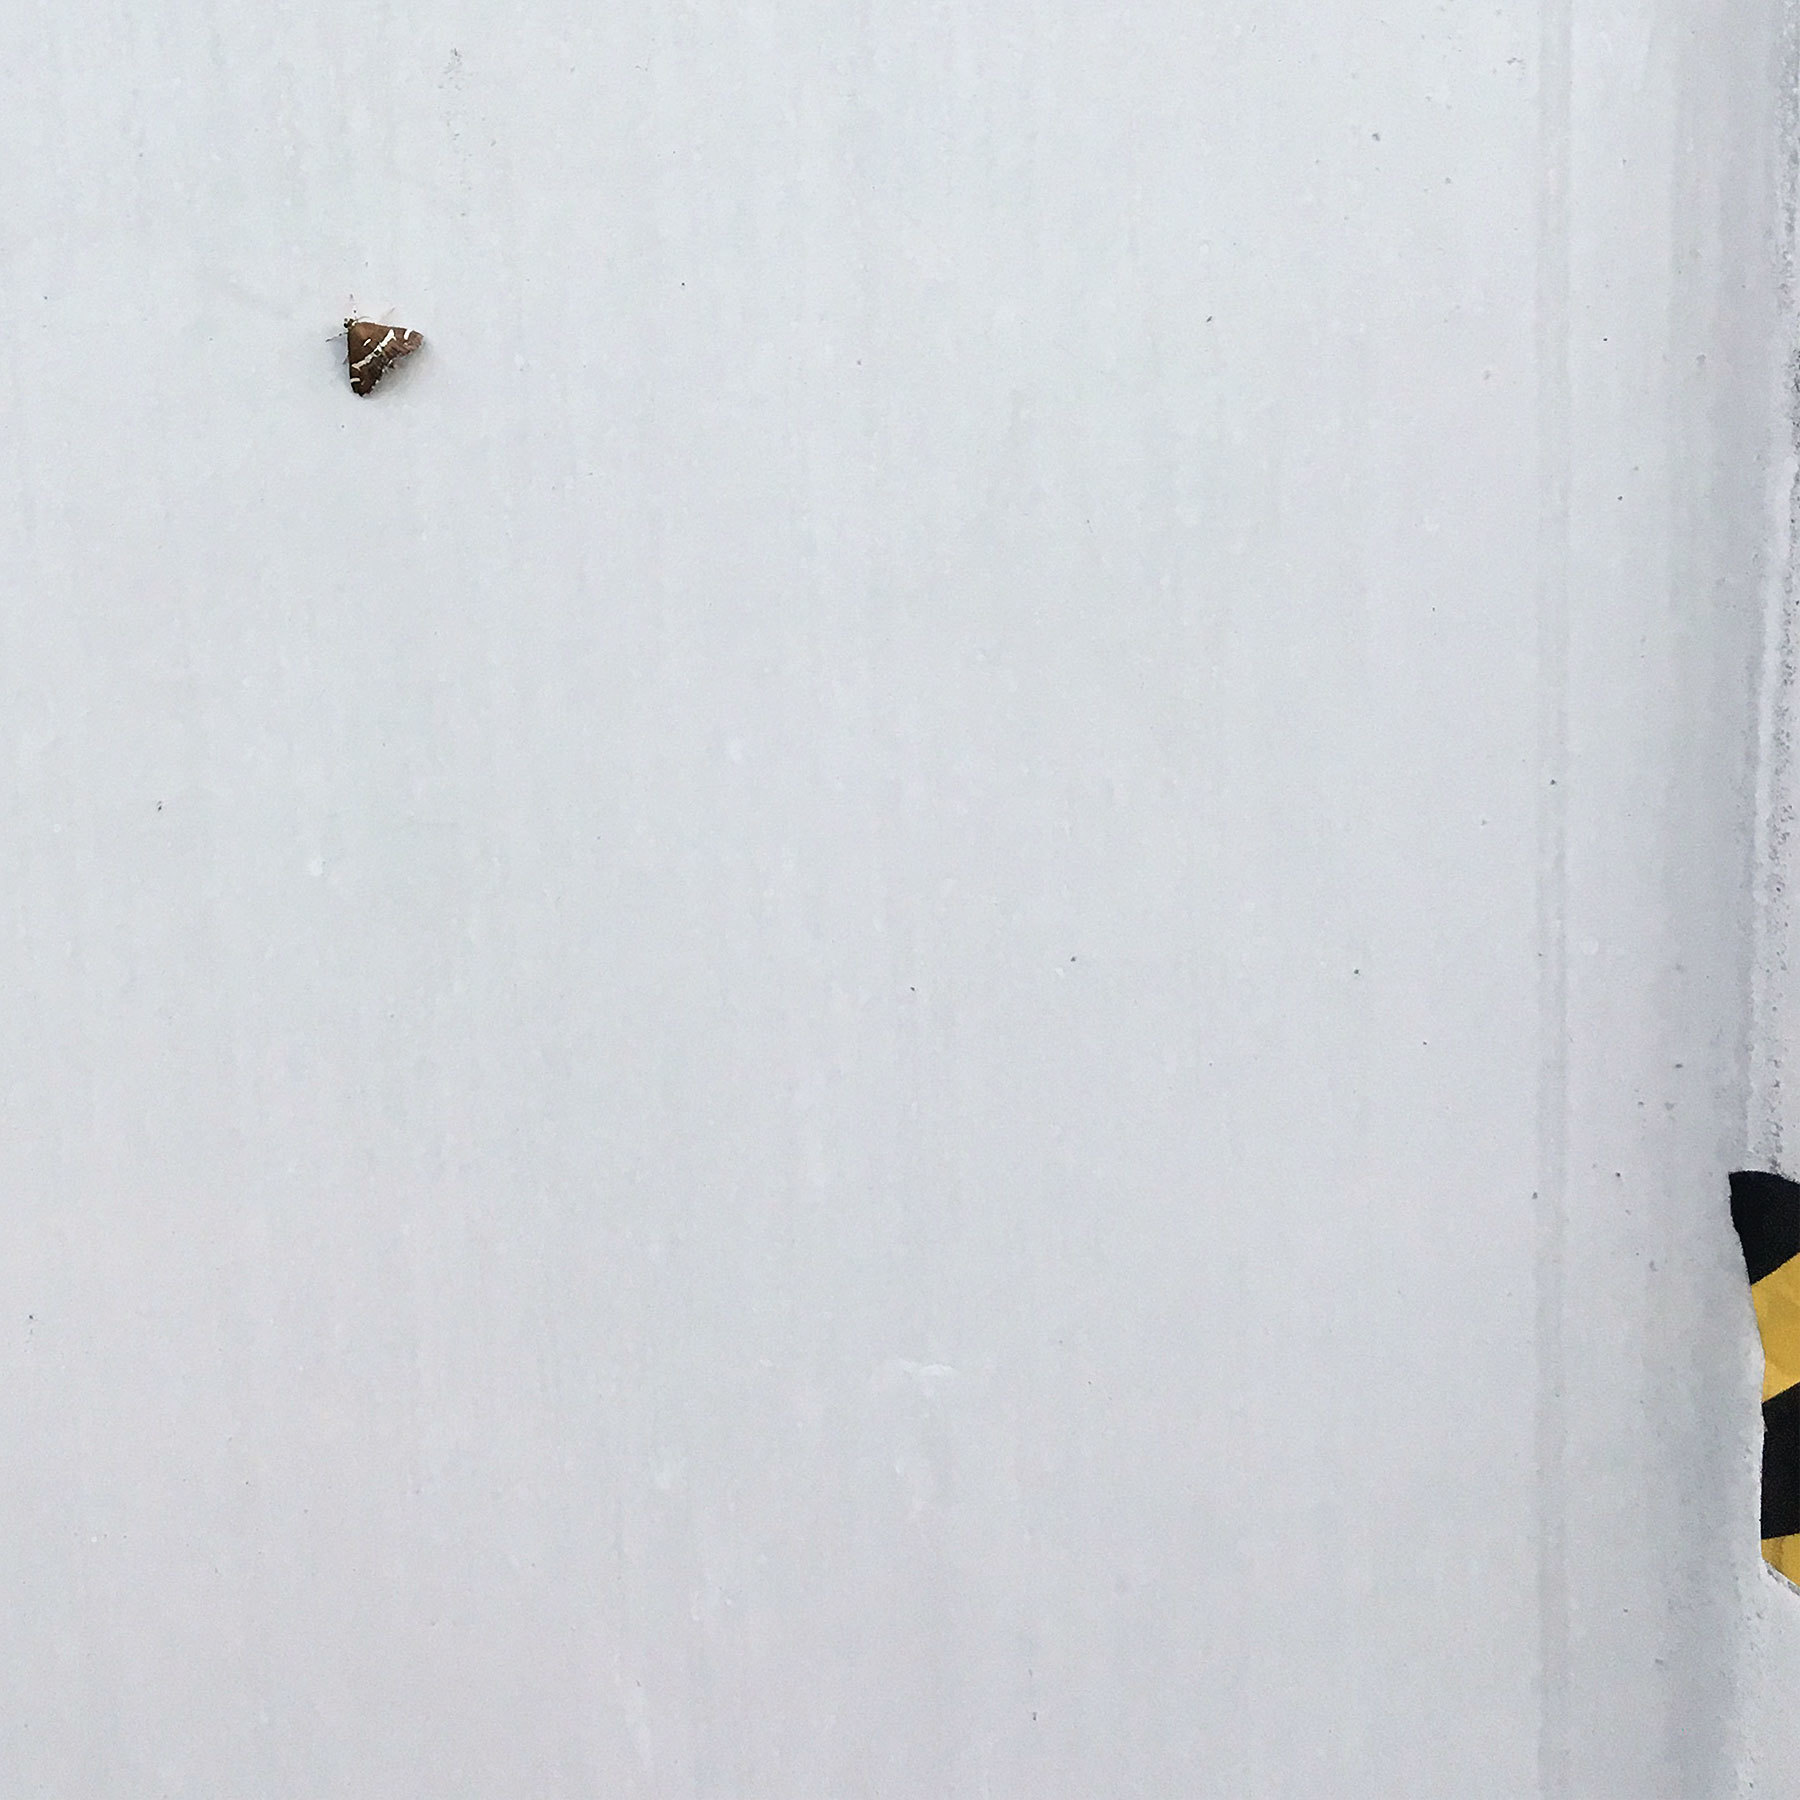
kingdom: Animalia
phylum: Arthropoda
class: Insecta
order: Lepidoptera
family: Crambidae
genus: Spoladea
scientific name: Spoladea recurvalis
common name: Beet webworm moth
